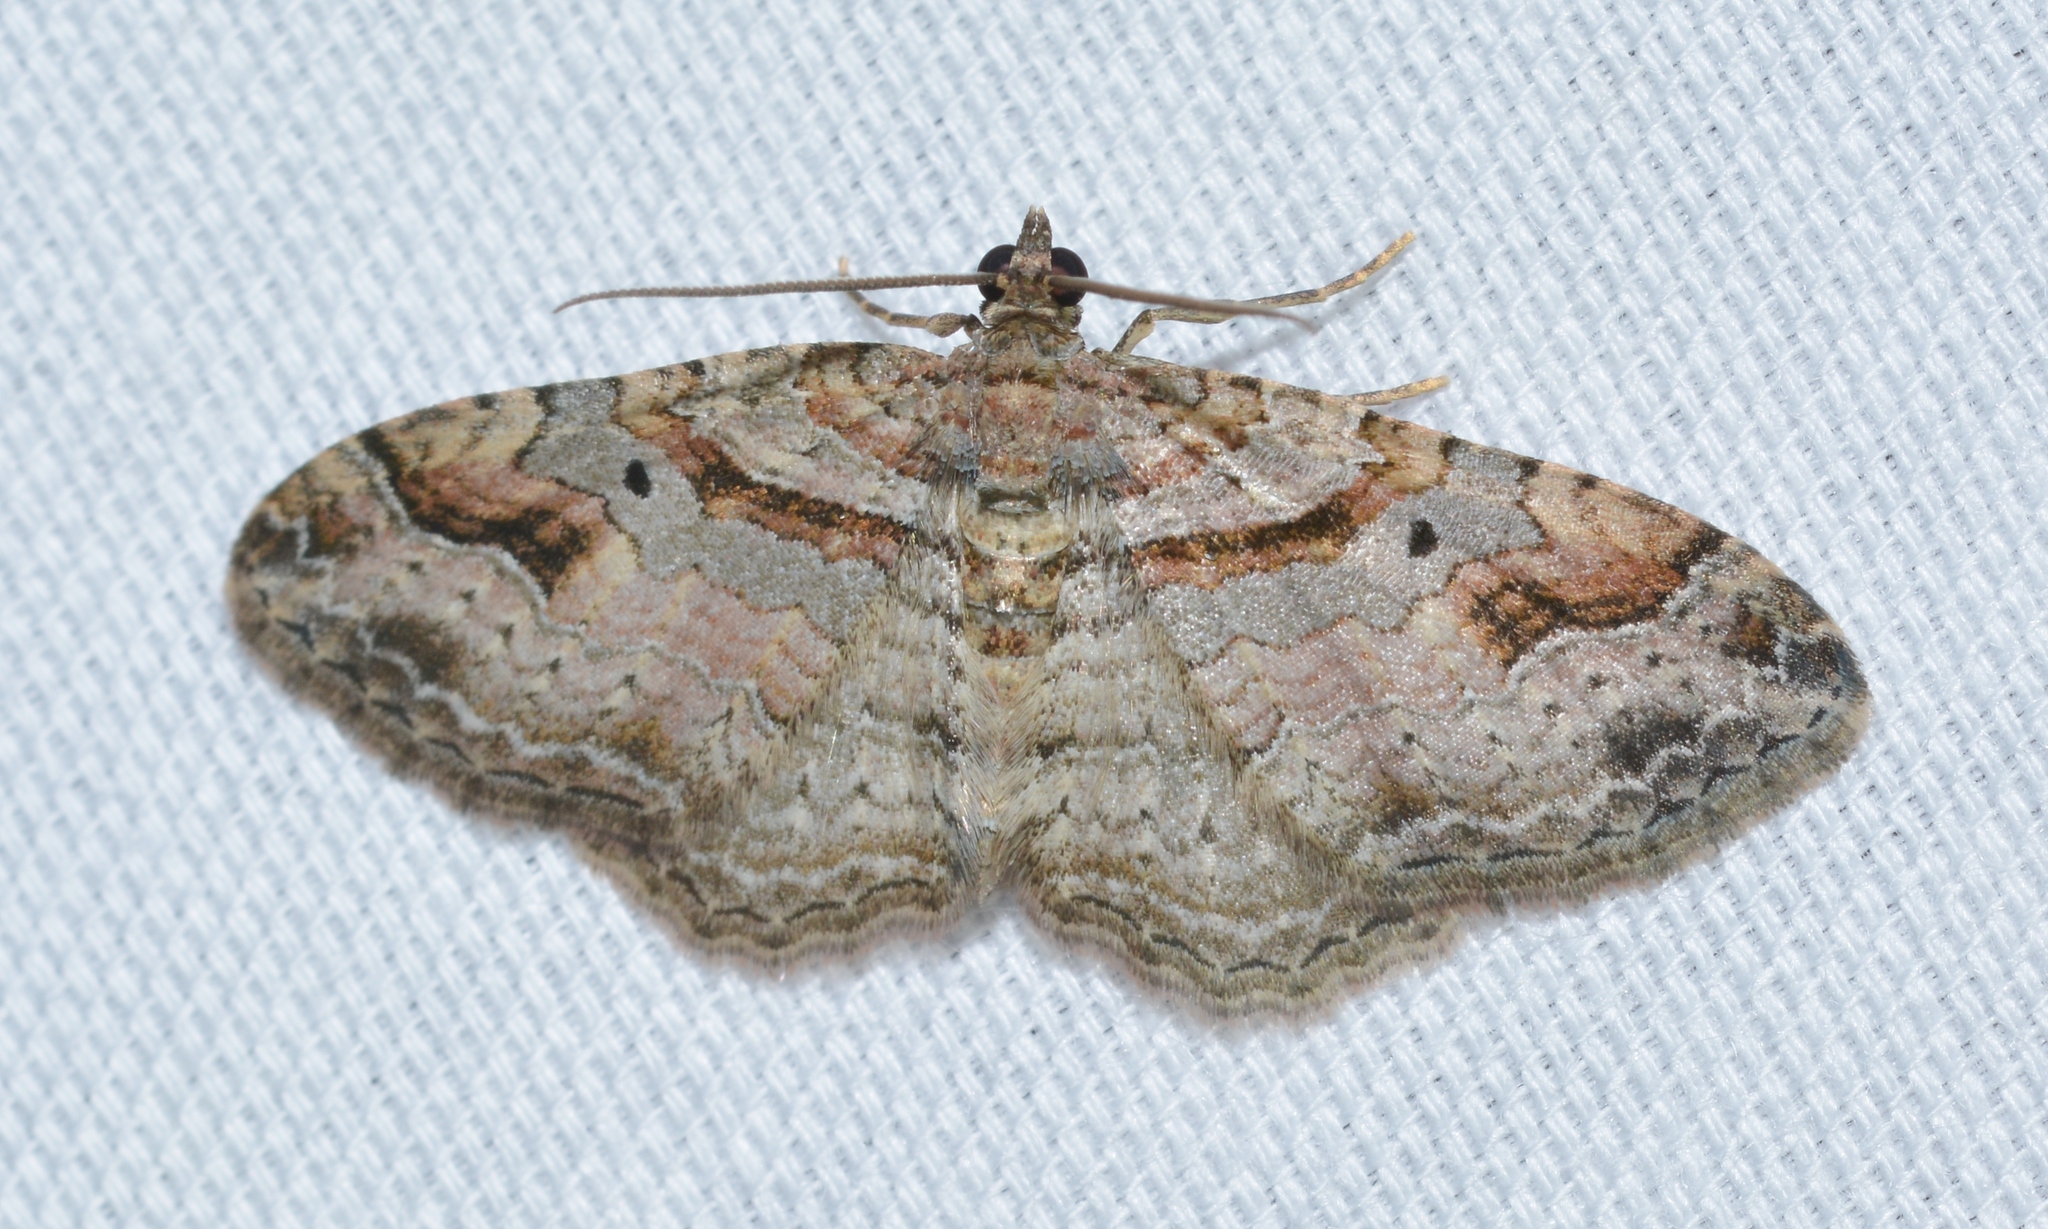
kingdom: Animalia
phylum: Arthropoda
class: Insecta
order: Lepidoptera
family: Geometridae
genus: Costaconvexa
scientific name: Costaconvexa centrostrigaria
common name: Bent-line carpet
